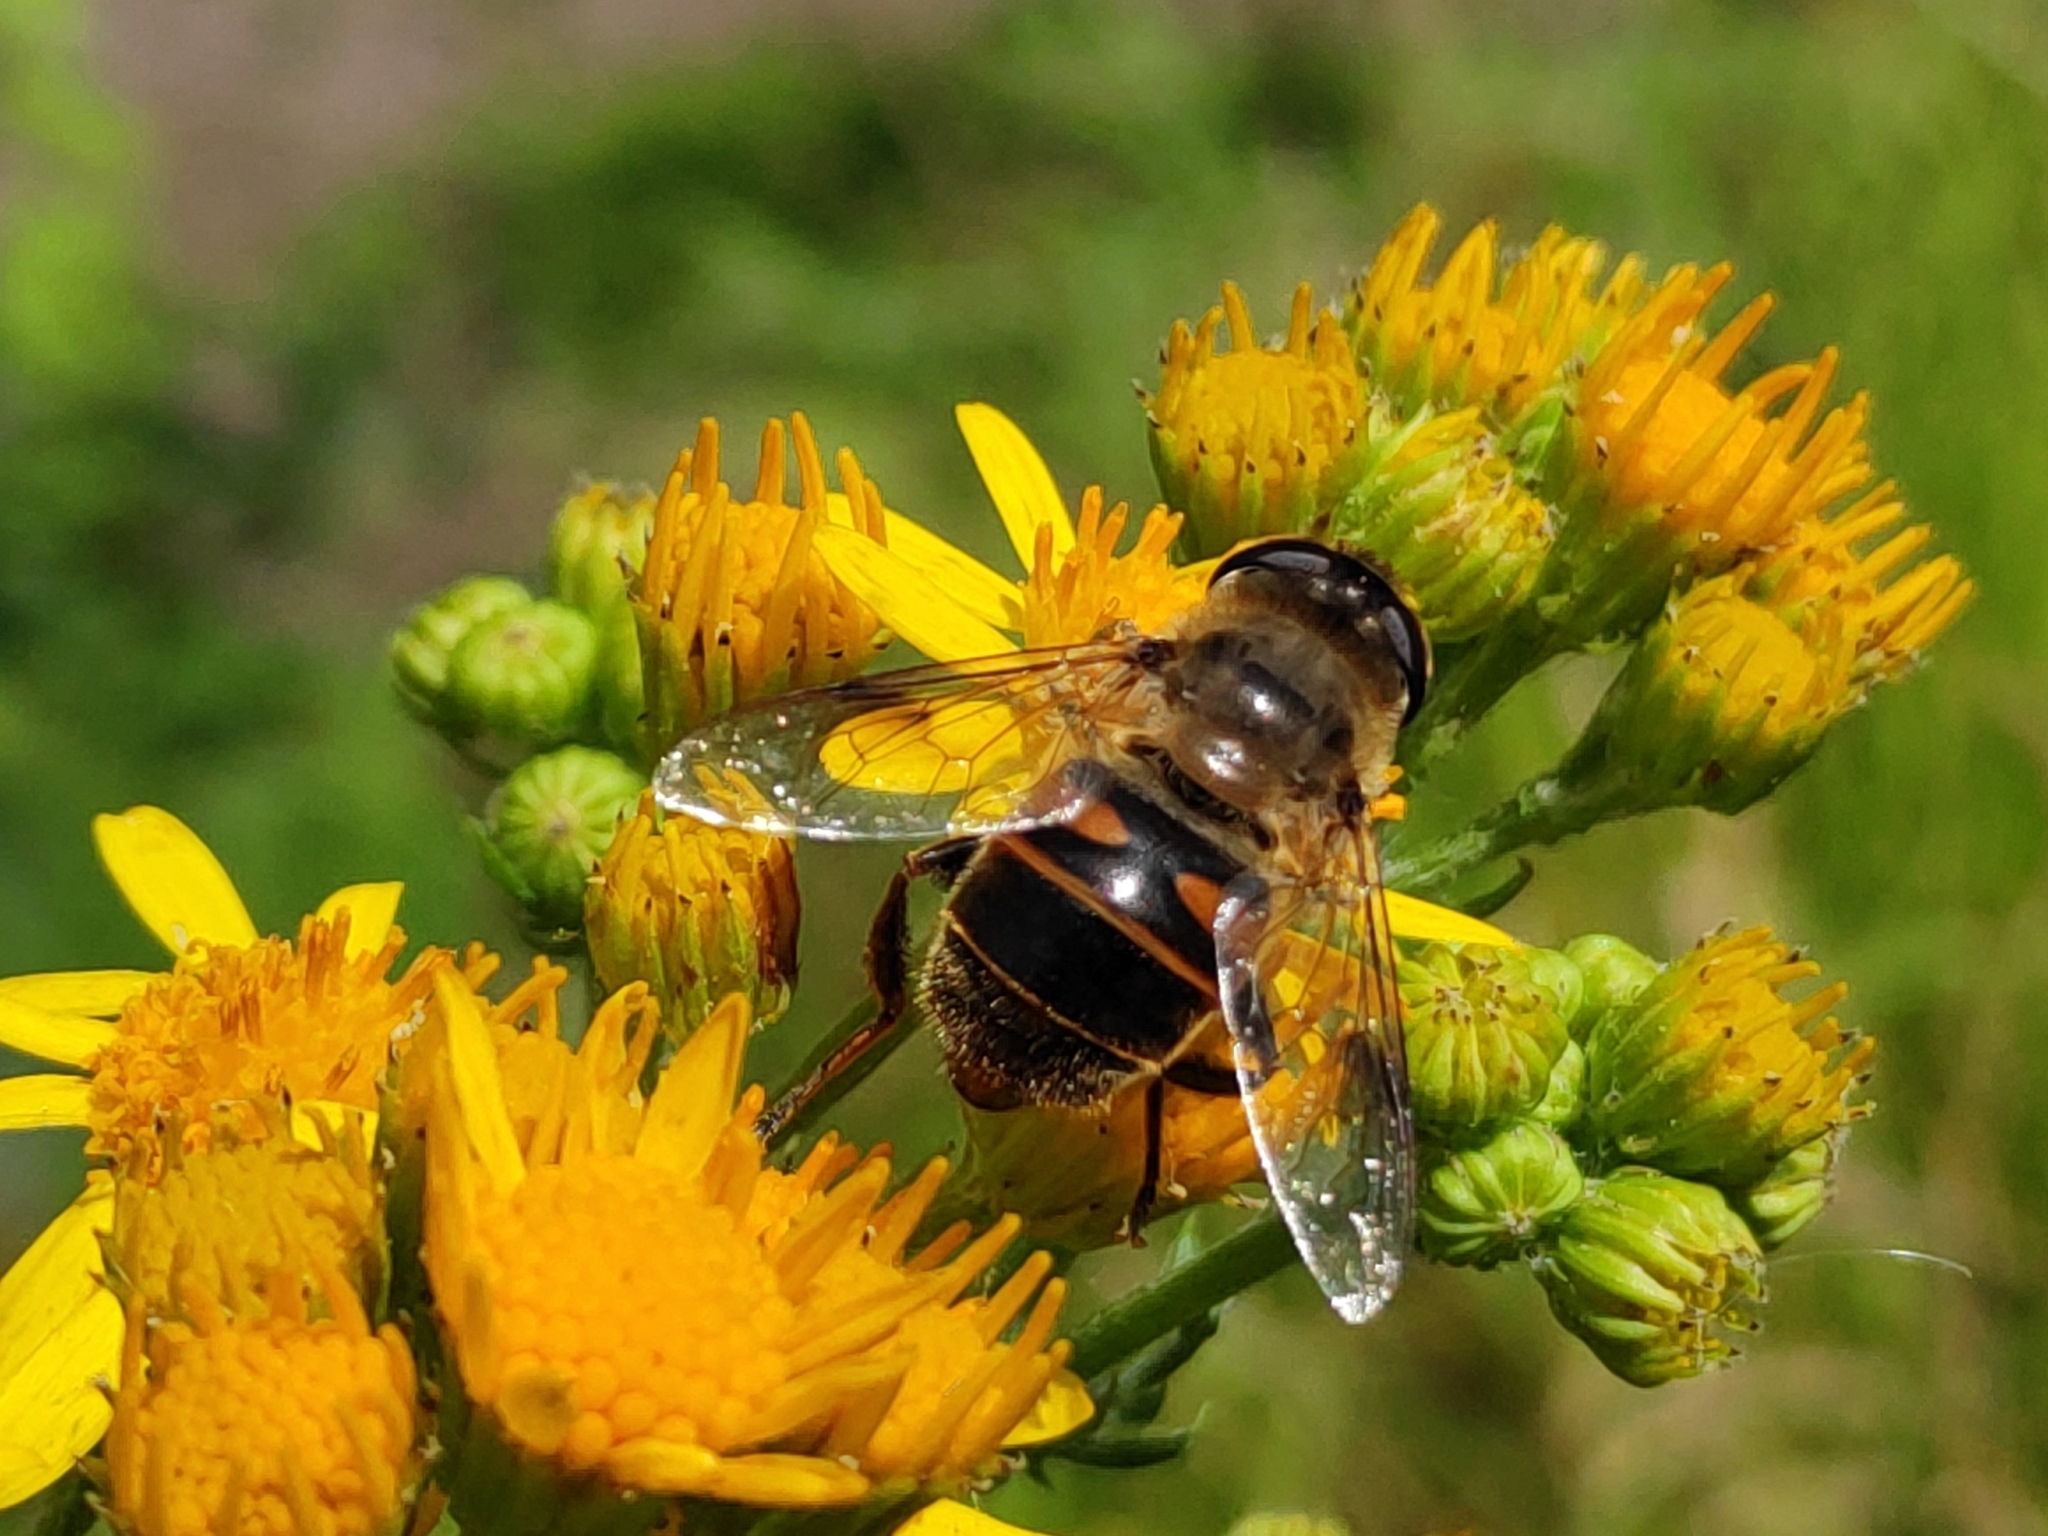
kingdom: Animalia
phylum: Arthropoda
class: Insecta
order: Diptera
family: Syrphidae
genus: Eristalis
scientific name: Eristalis tenax
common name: Drone fly
